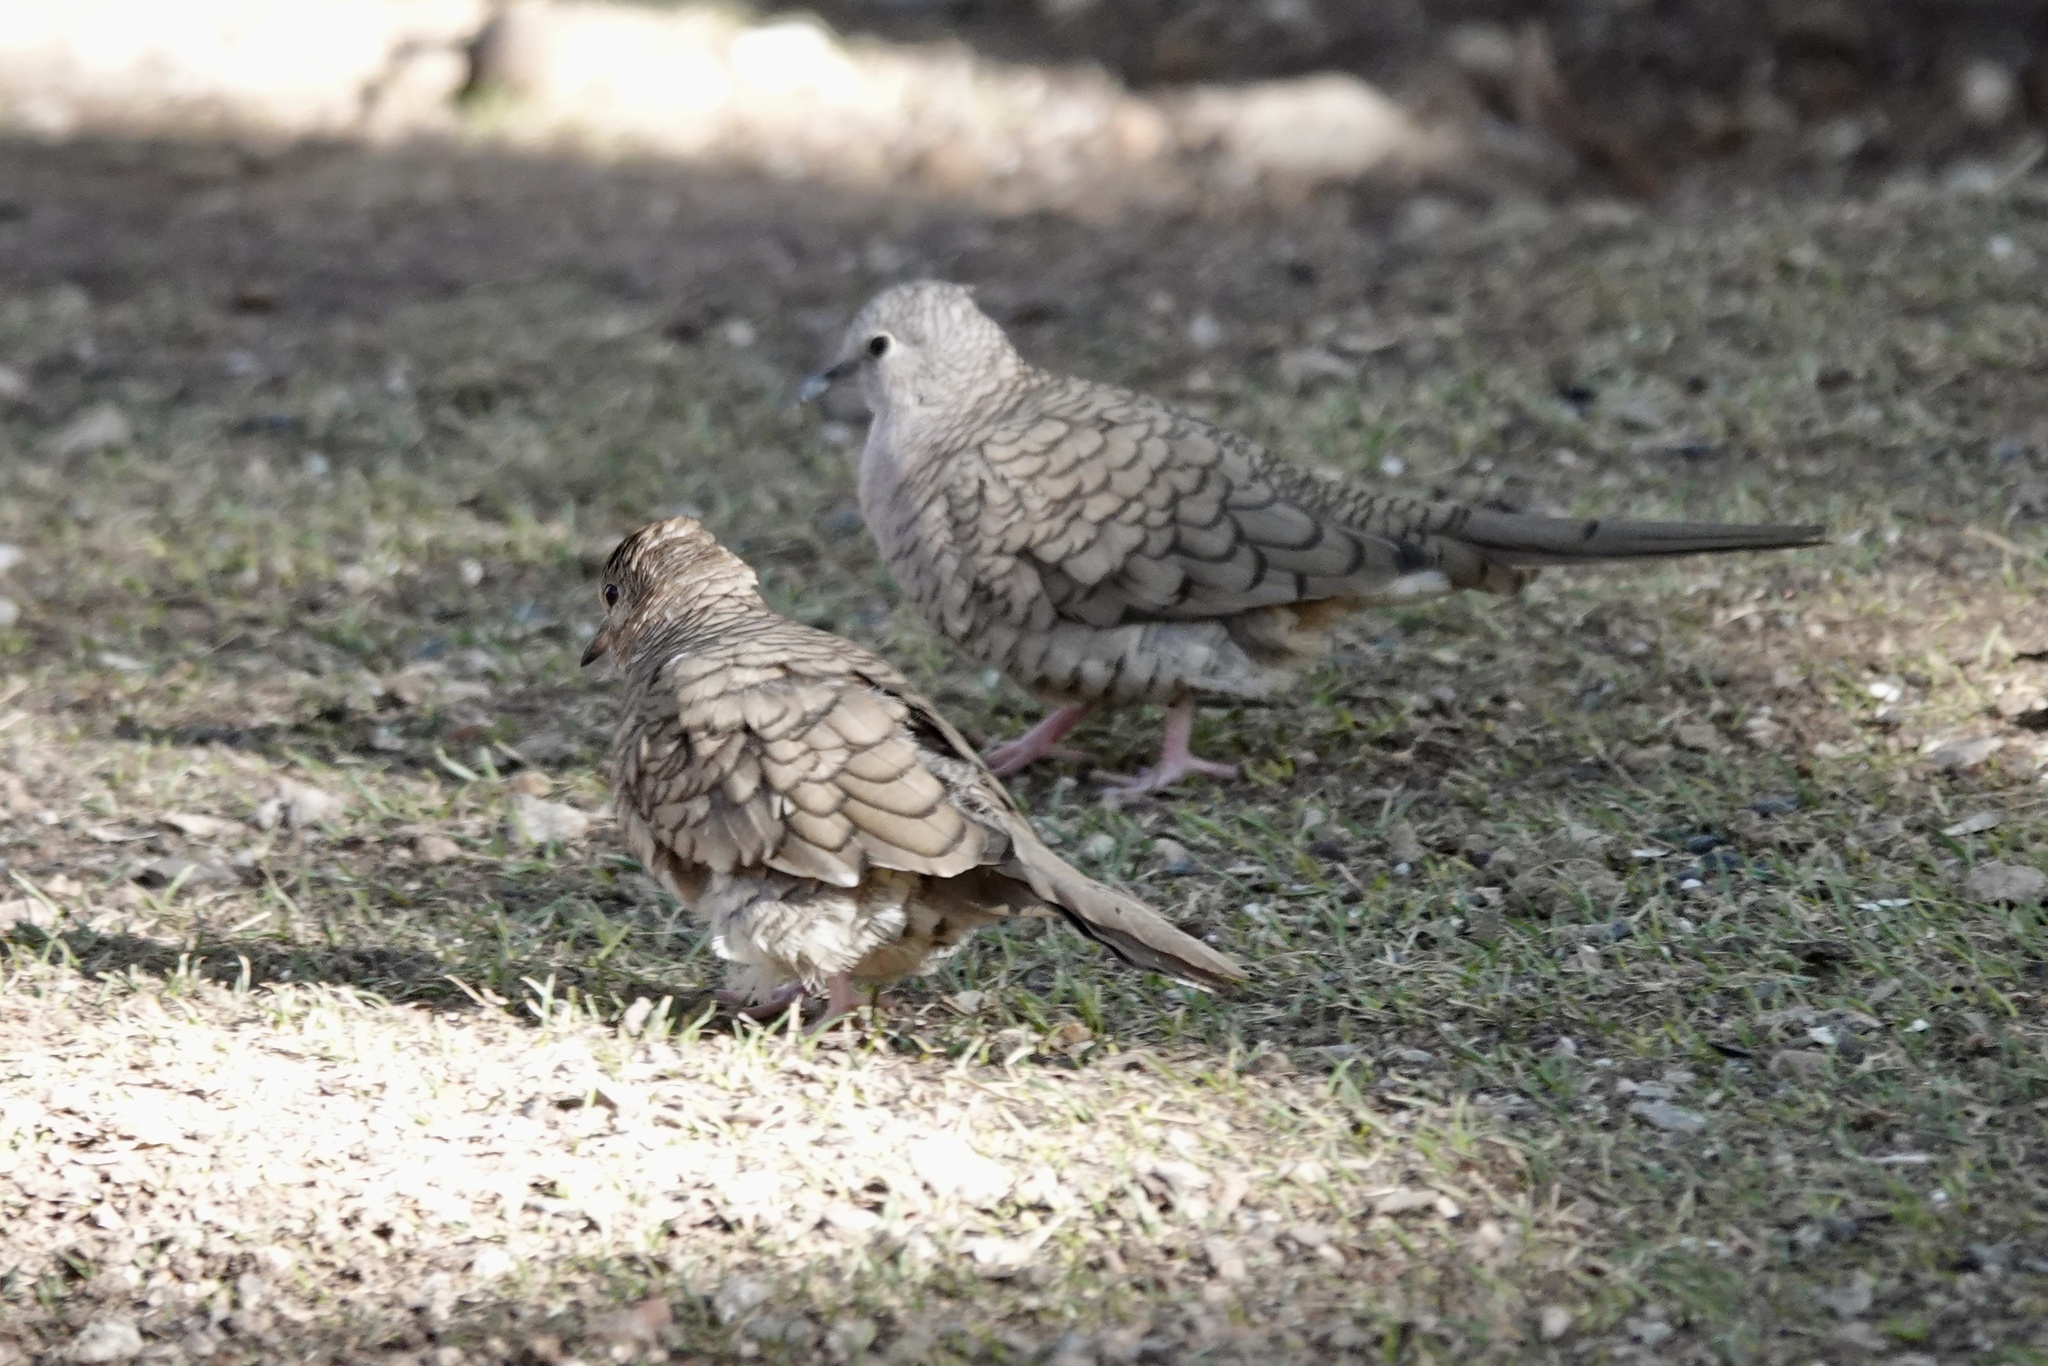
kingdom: Animalia
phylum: Chordata
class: Aves
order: Columbiformes
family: Columbidae
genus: Columbina
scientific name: Columbina inca
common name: Inca dove
